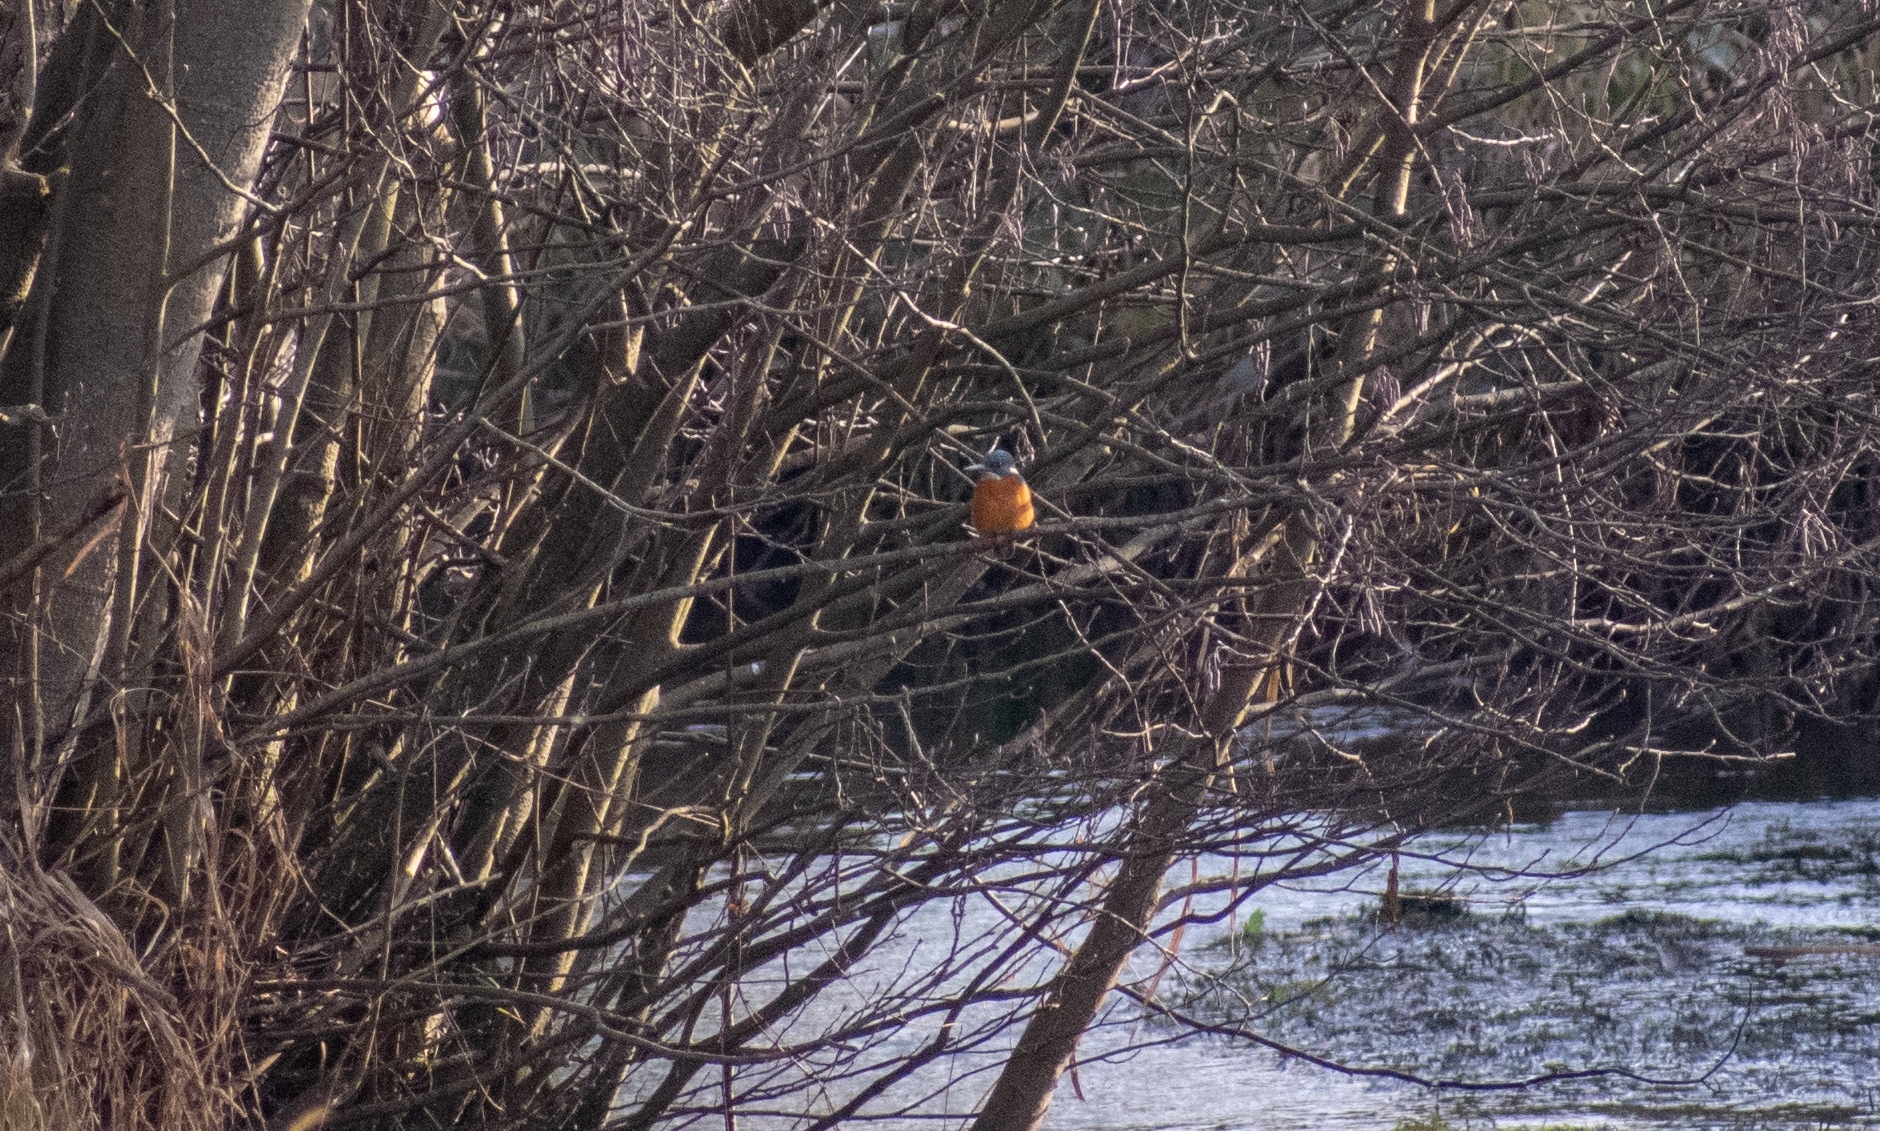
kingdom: Animalia
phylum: Chordata
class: Aves
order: Coraciiformes
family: Alcedinidae
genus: Alcedo
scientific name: Alcedo atthis
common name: Common kingfisher
